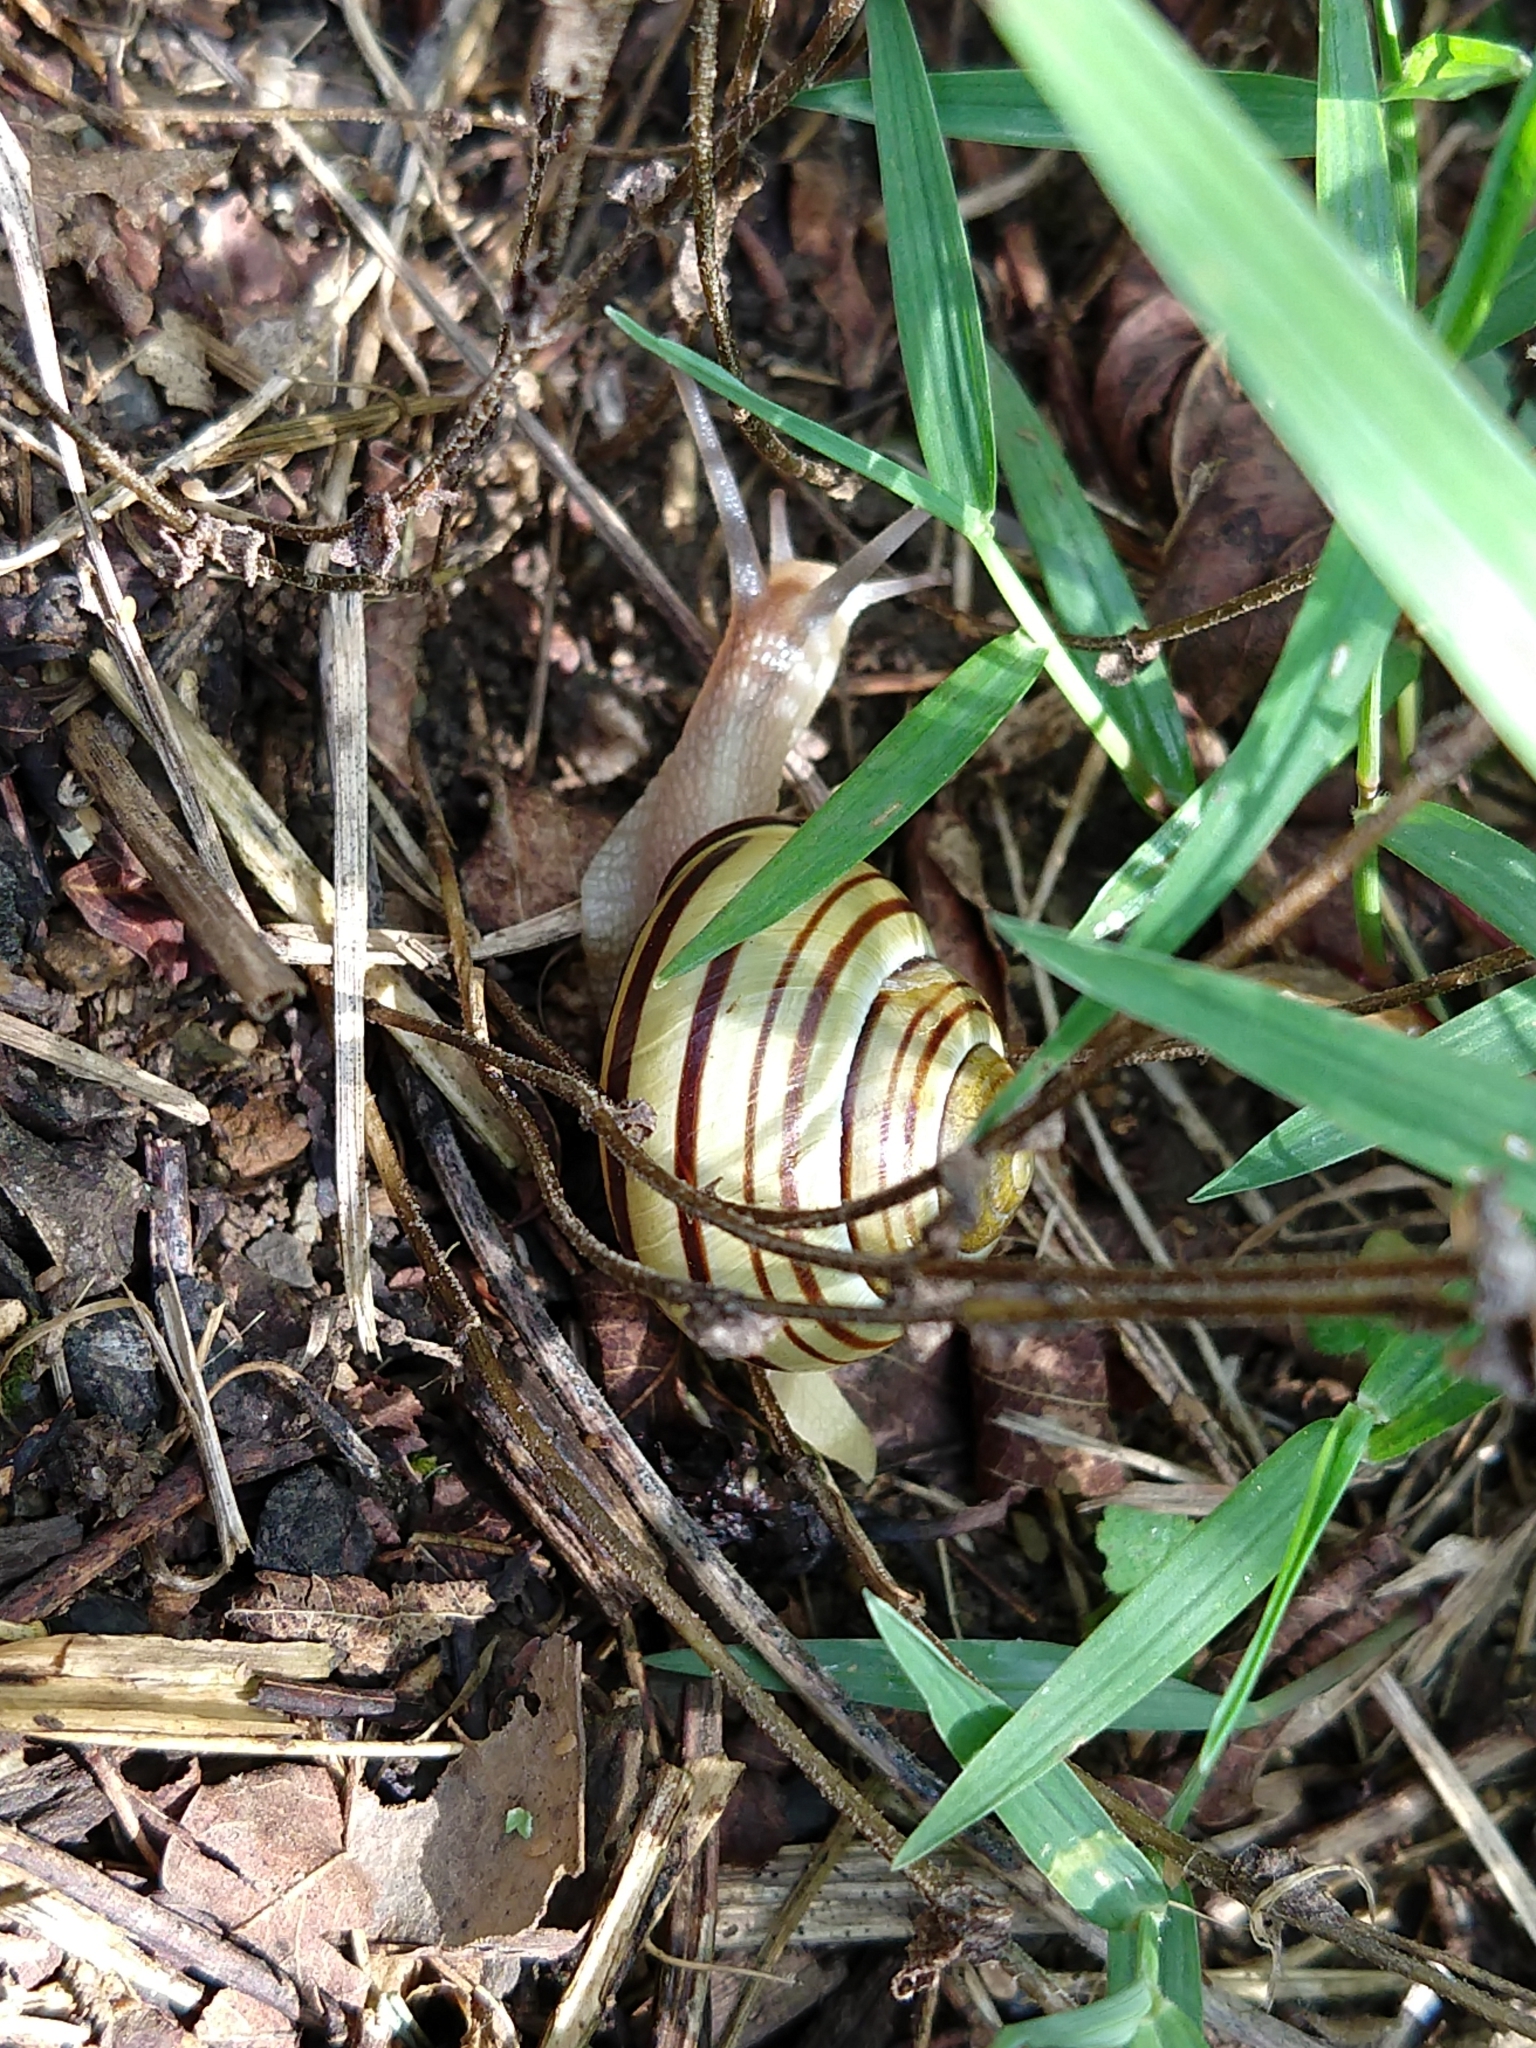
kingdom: Animalia
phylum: Mollusca
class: Gastropoda
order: Stylommatophora
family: Helicidae
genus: Cepaea
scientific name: Cepaea nemoralis
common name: Grovesnail
